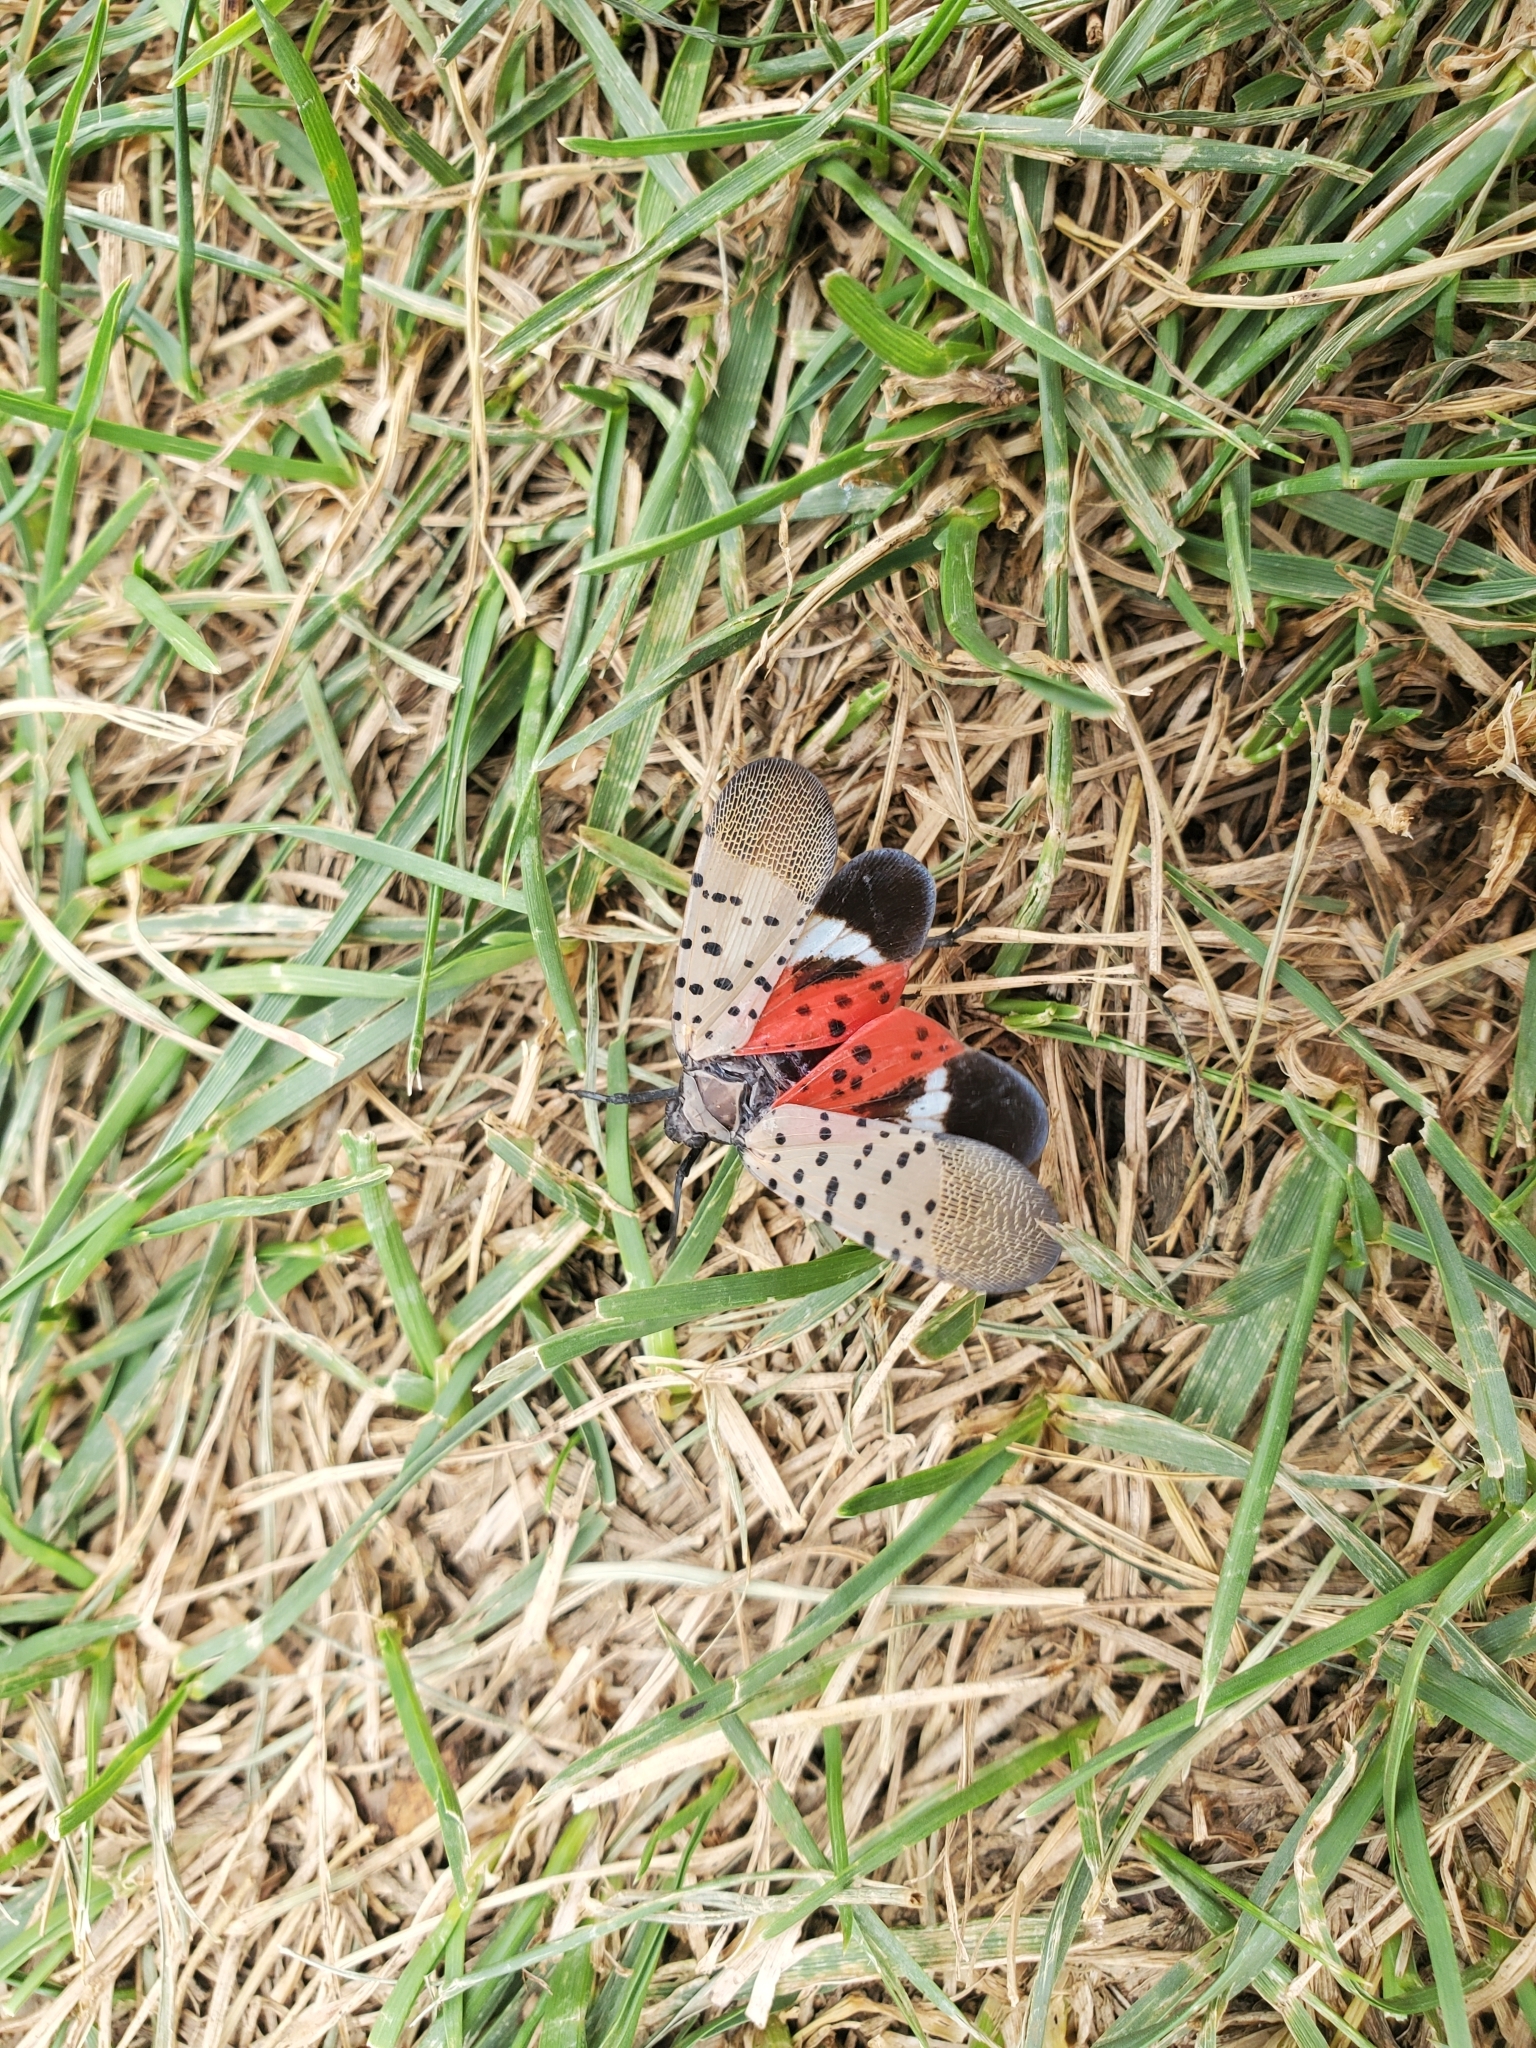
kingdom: Animalia
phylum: Arthropoda
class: Insecta
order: Hemiptera
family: Fulgoridae
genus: Lycorma
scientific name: Lycorma delicatula
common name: Spotted lanternfly
